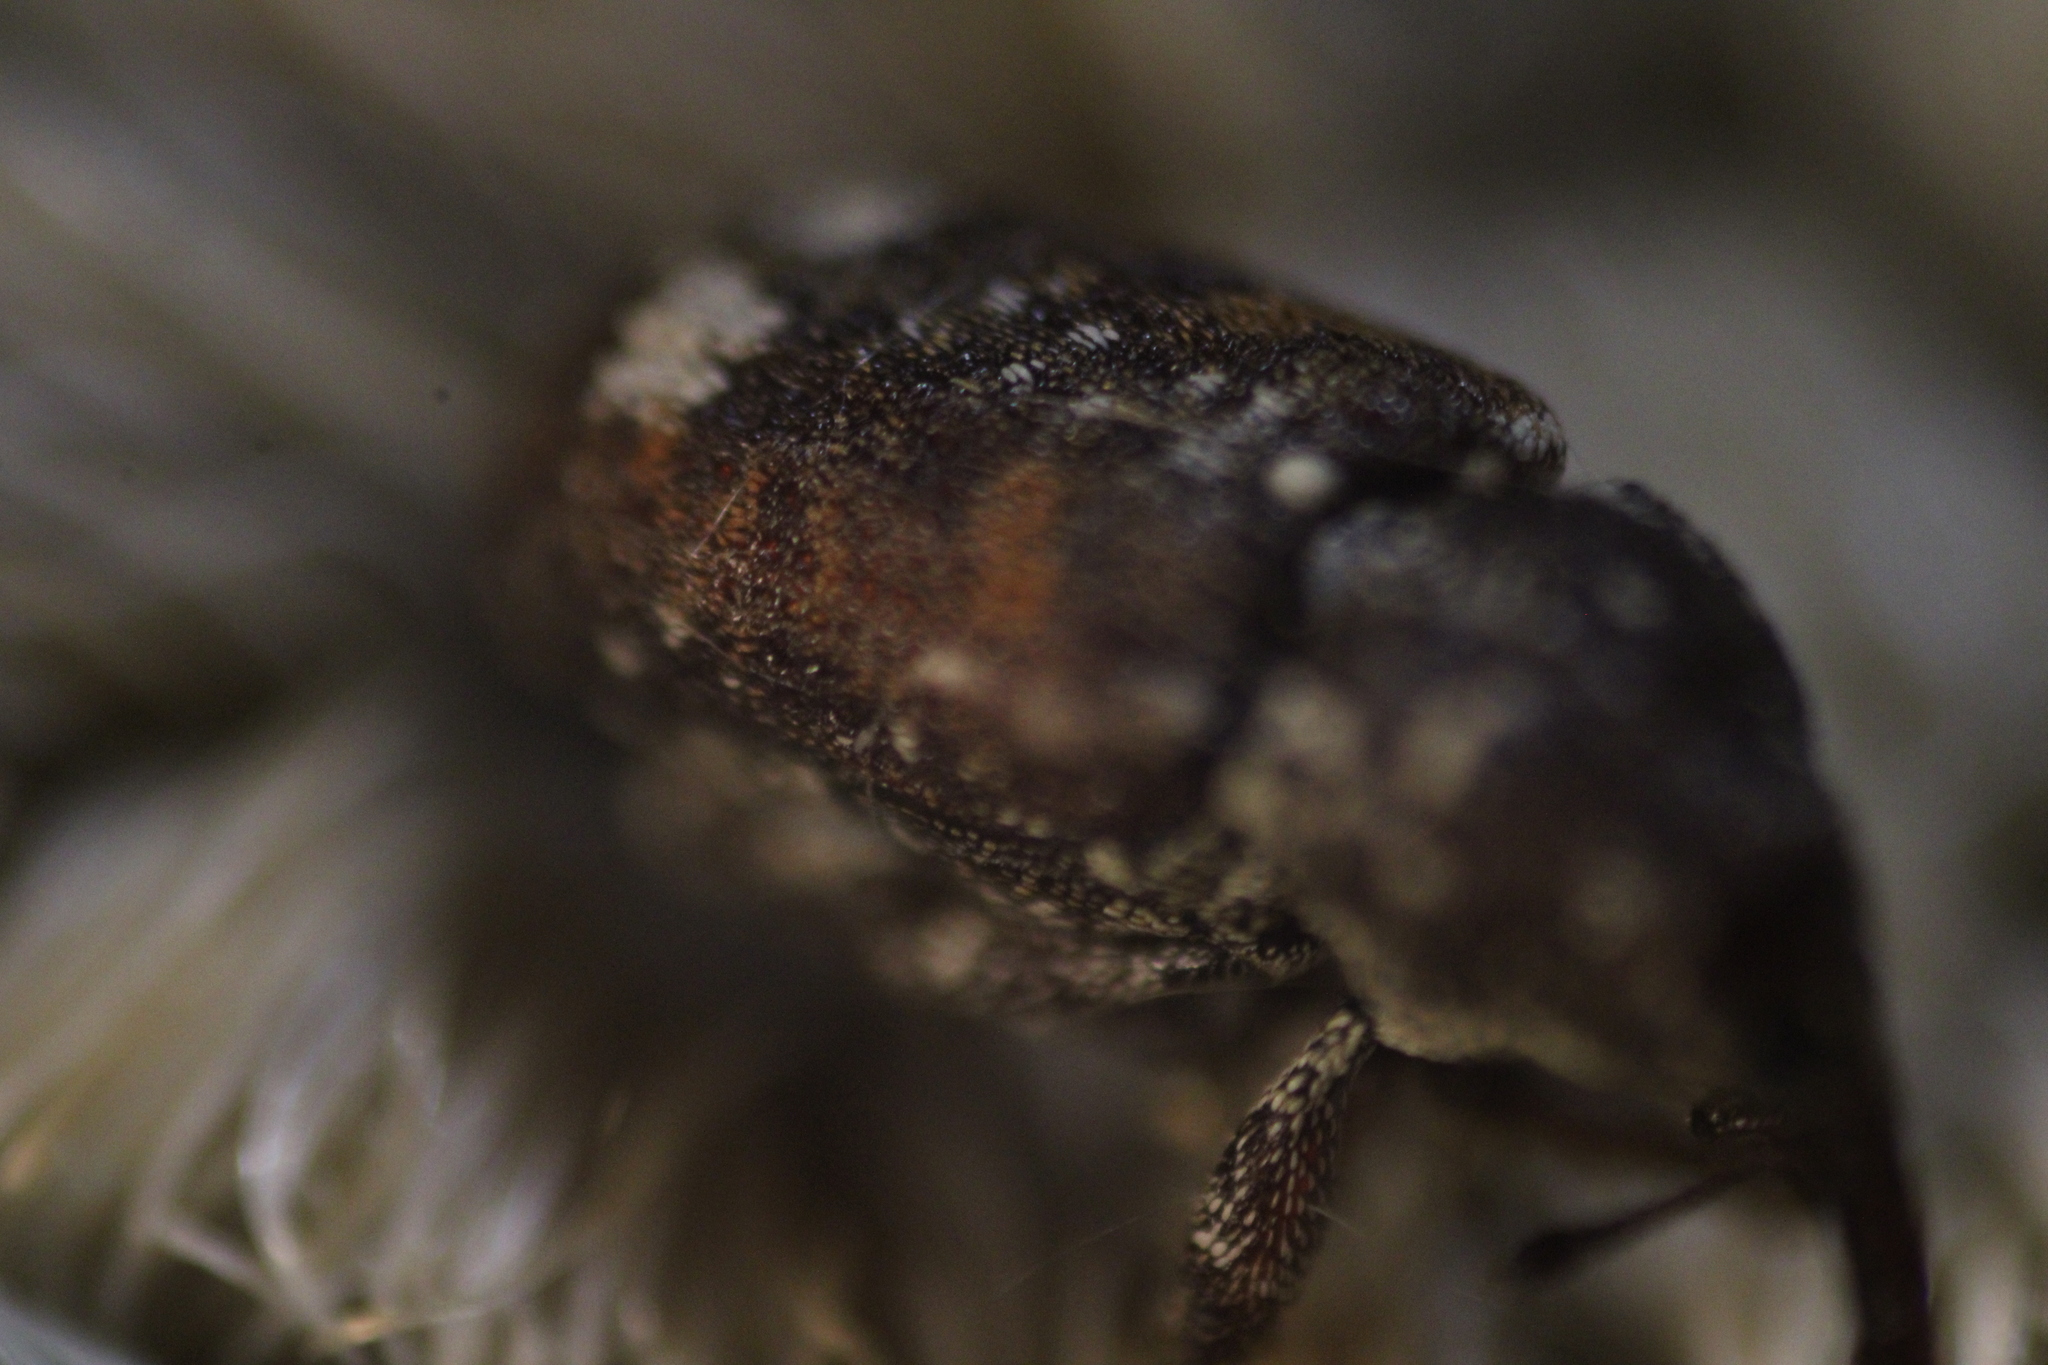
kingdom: Animalia
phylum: Arthropoda
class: Insecta
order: Coleoptera
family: Curculionidae
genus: Pissodes
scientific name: Pissodes strobi
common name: White pine weevil
